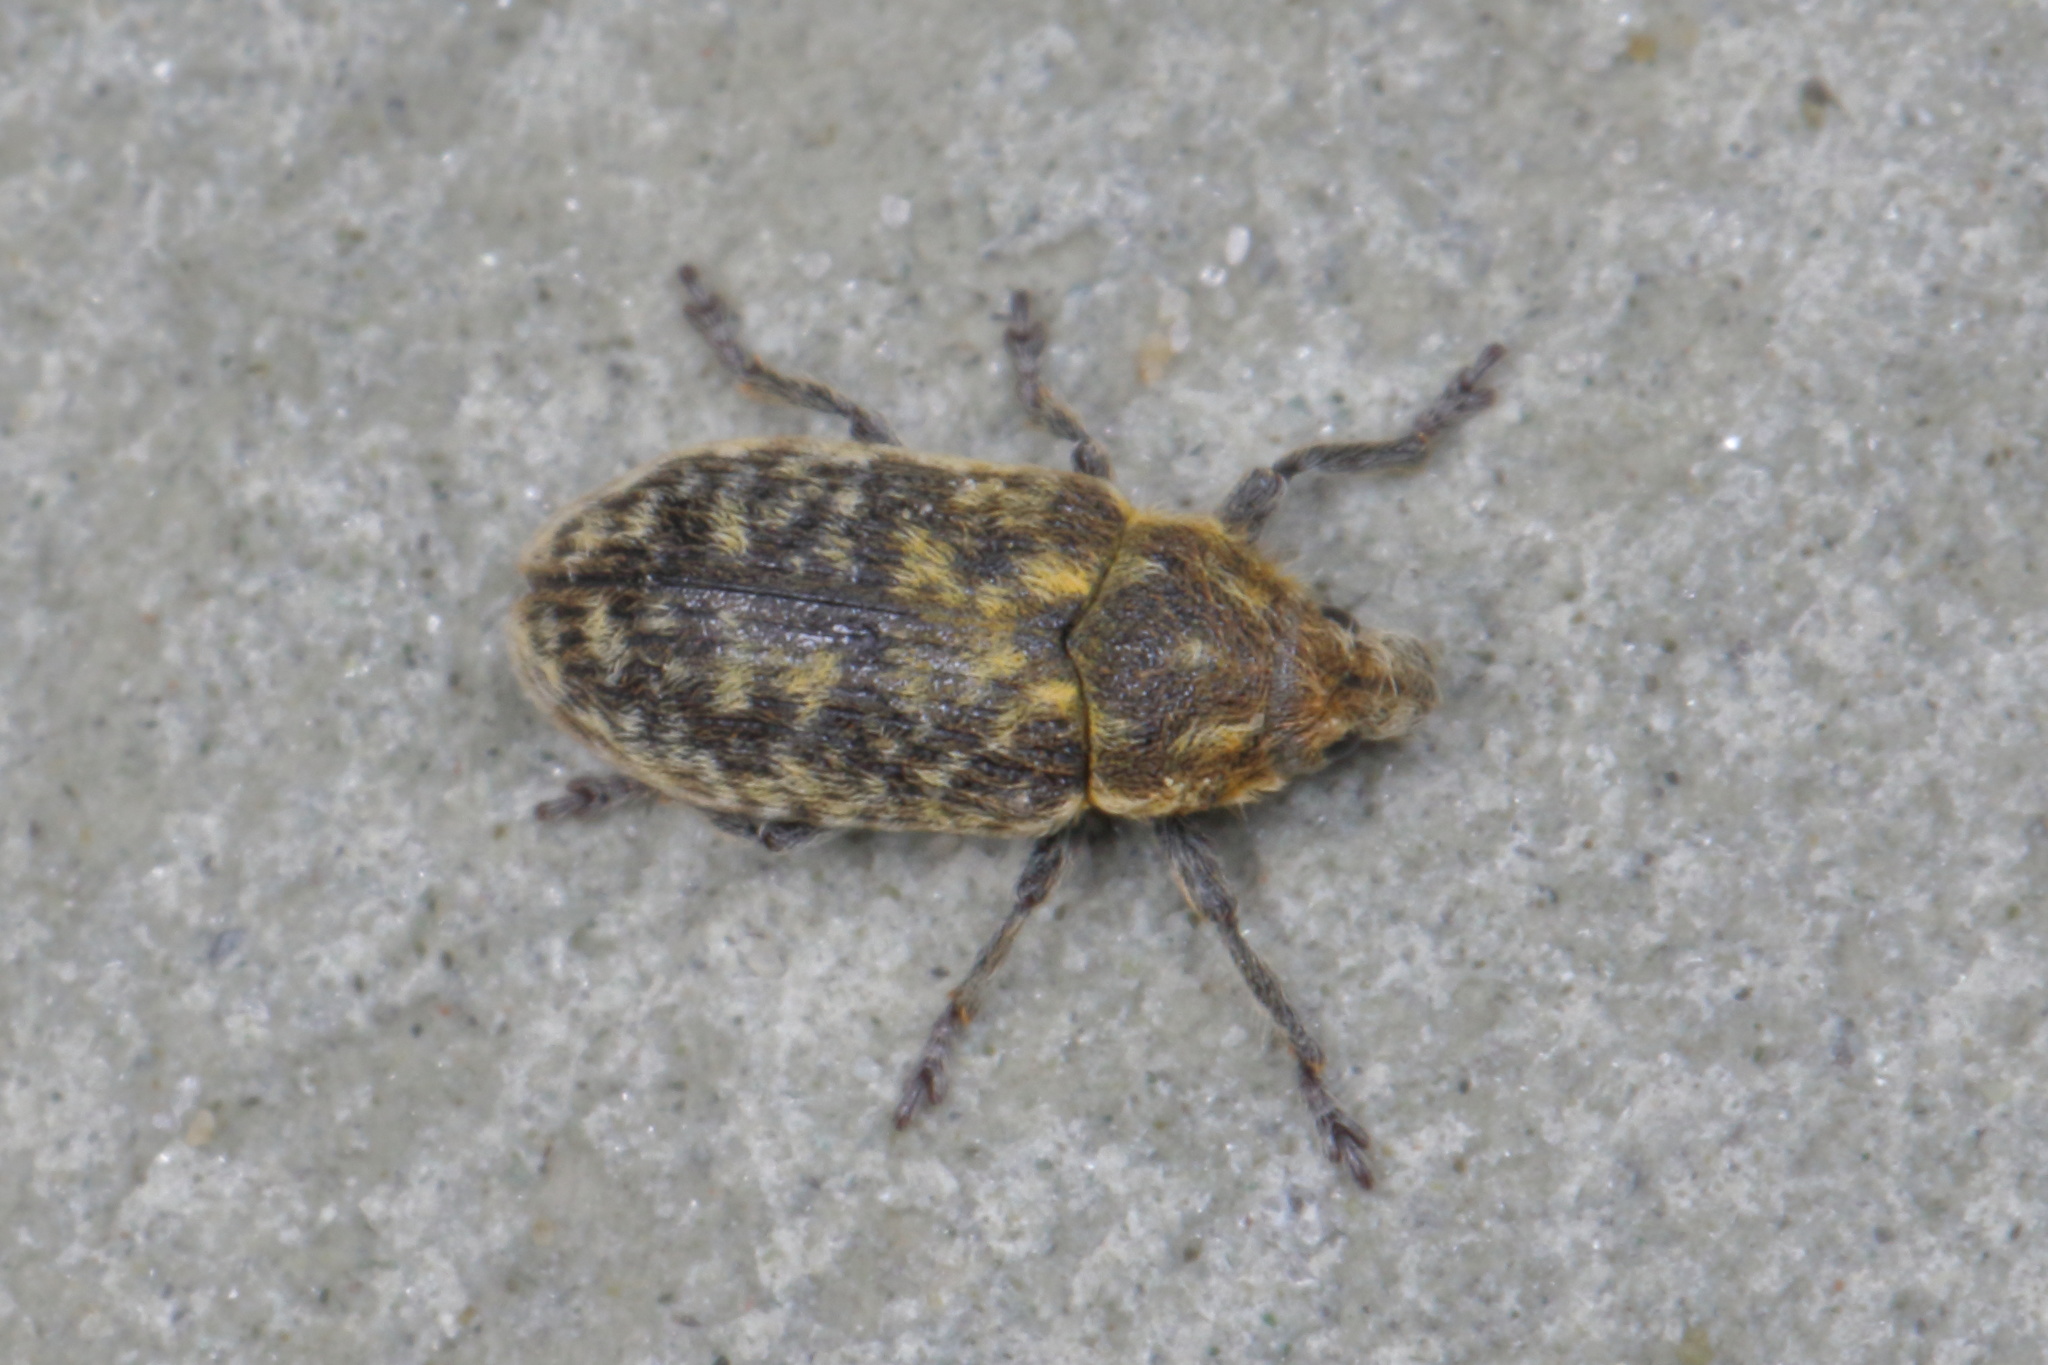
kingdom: Animalia
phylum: Arthropoda
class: Insecta
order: Coleoptera
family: Curculionidae
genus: Rhinocyllus
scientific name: Rhinocyllus conicus
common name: Weevil
